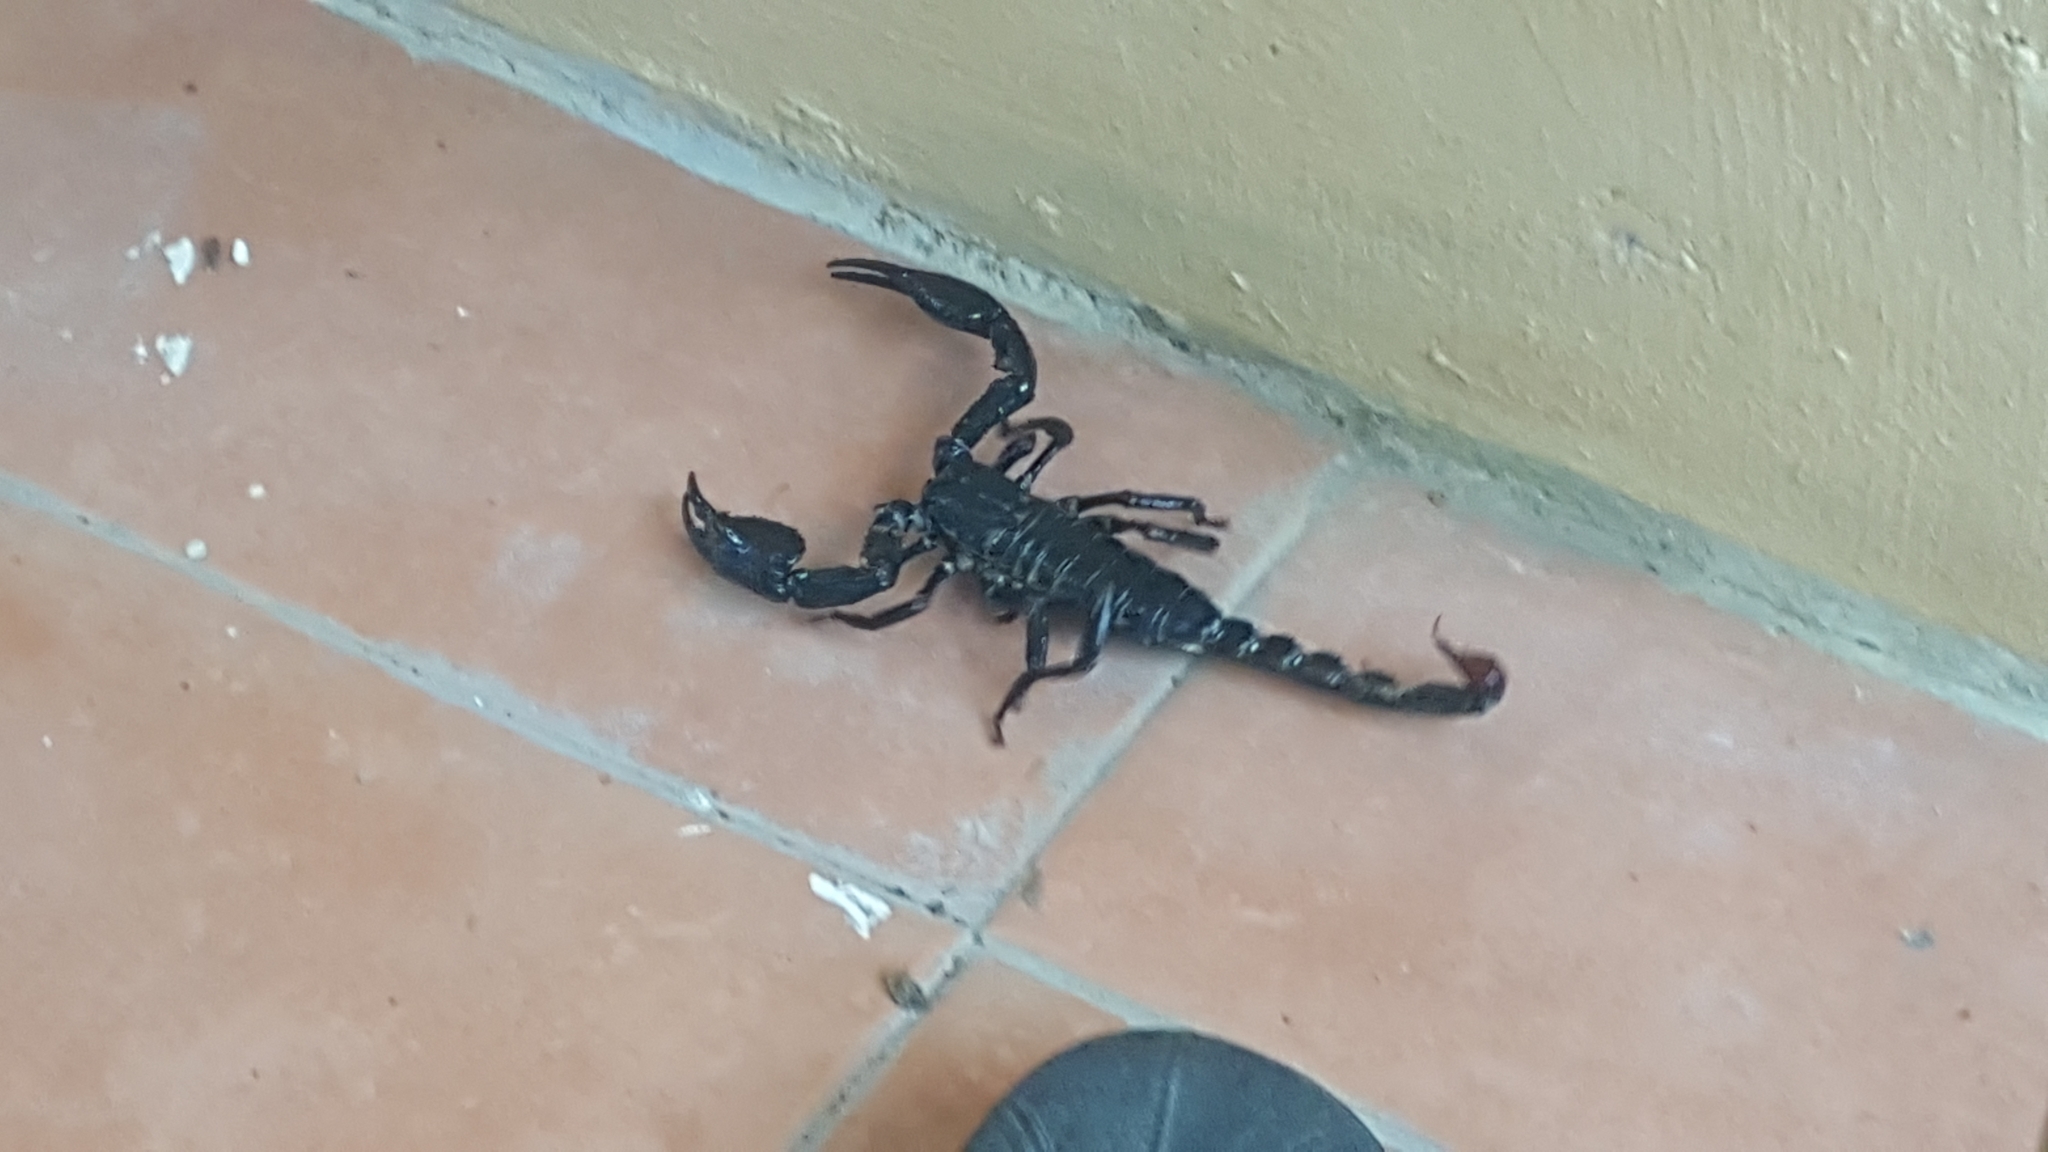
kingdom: Animalia
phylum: Arthropoda
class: Arachnida
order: Scorpiones
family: Scorpionidae
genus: Heterometrus
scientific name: Heterometrus spinifer
